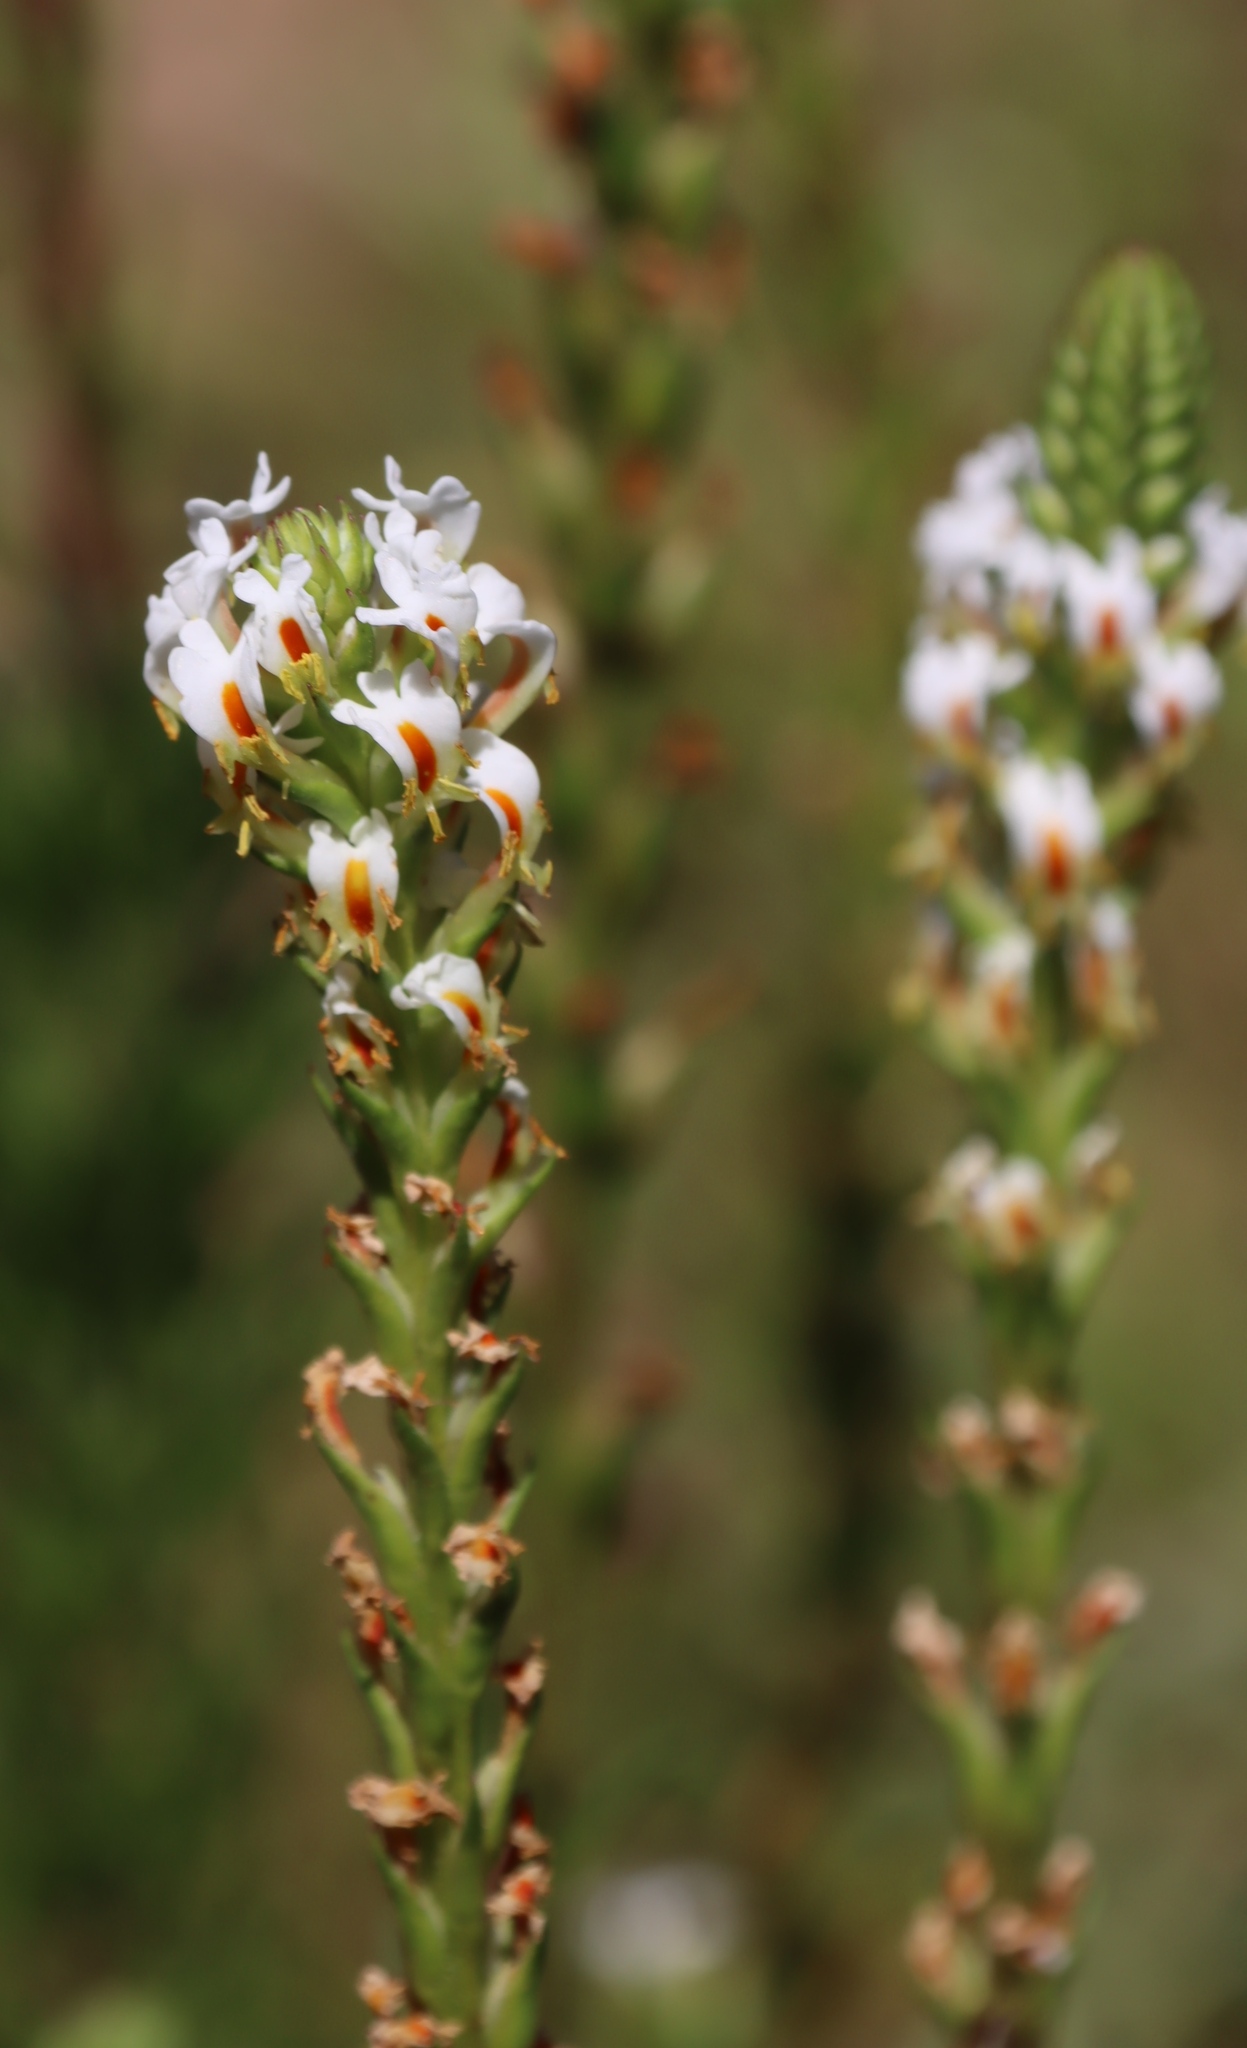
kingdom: Plantae
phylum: Tracheophyta
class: Magnoliopsida
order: Lamiales
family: Scrophulariaceae
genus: Hebenstretia
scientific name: Hebenstretia repens
